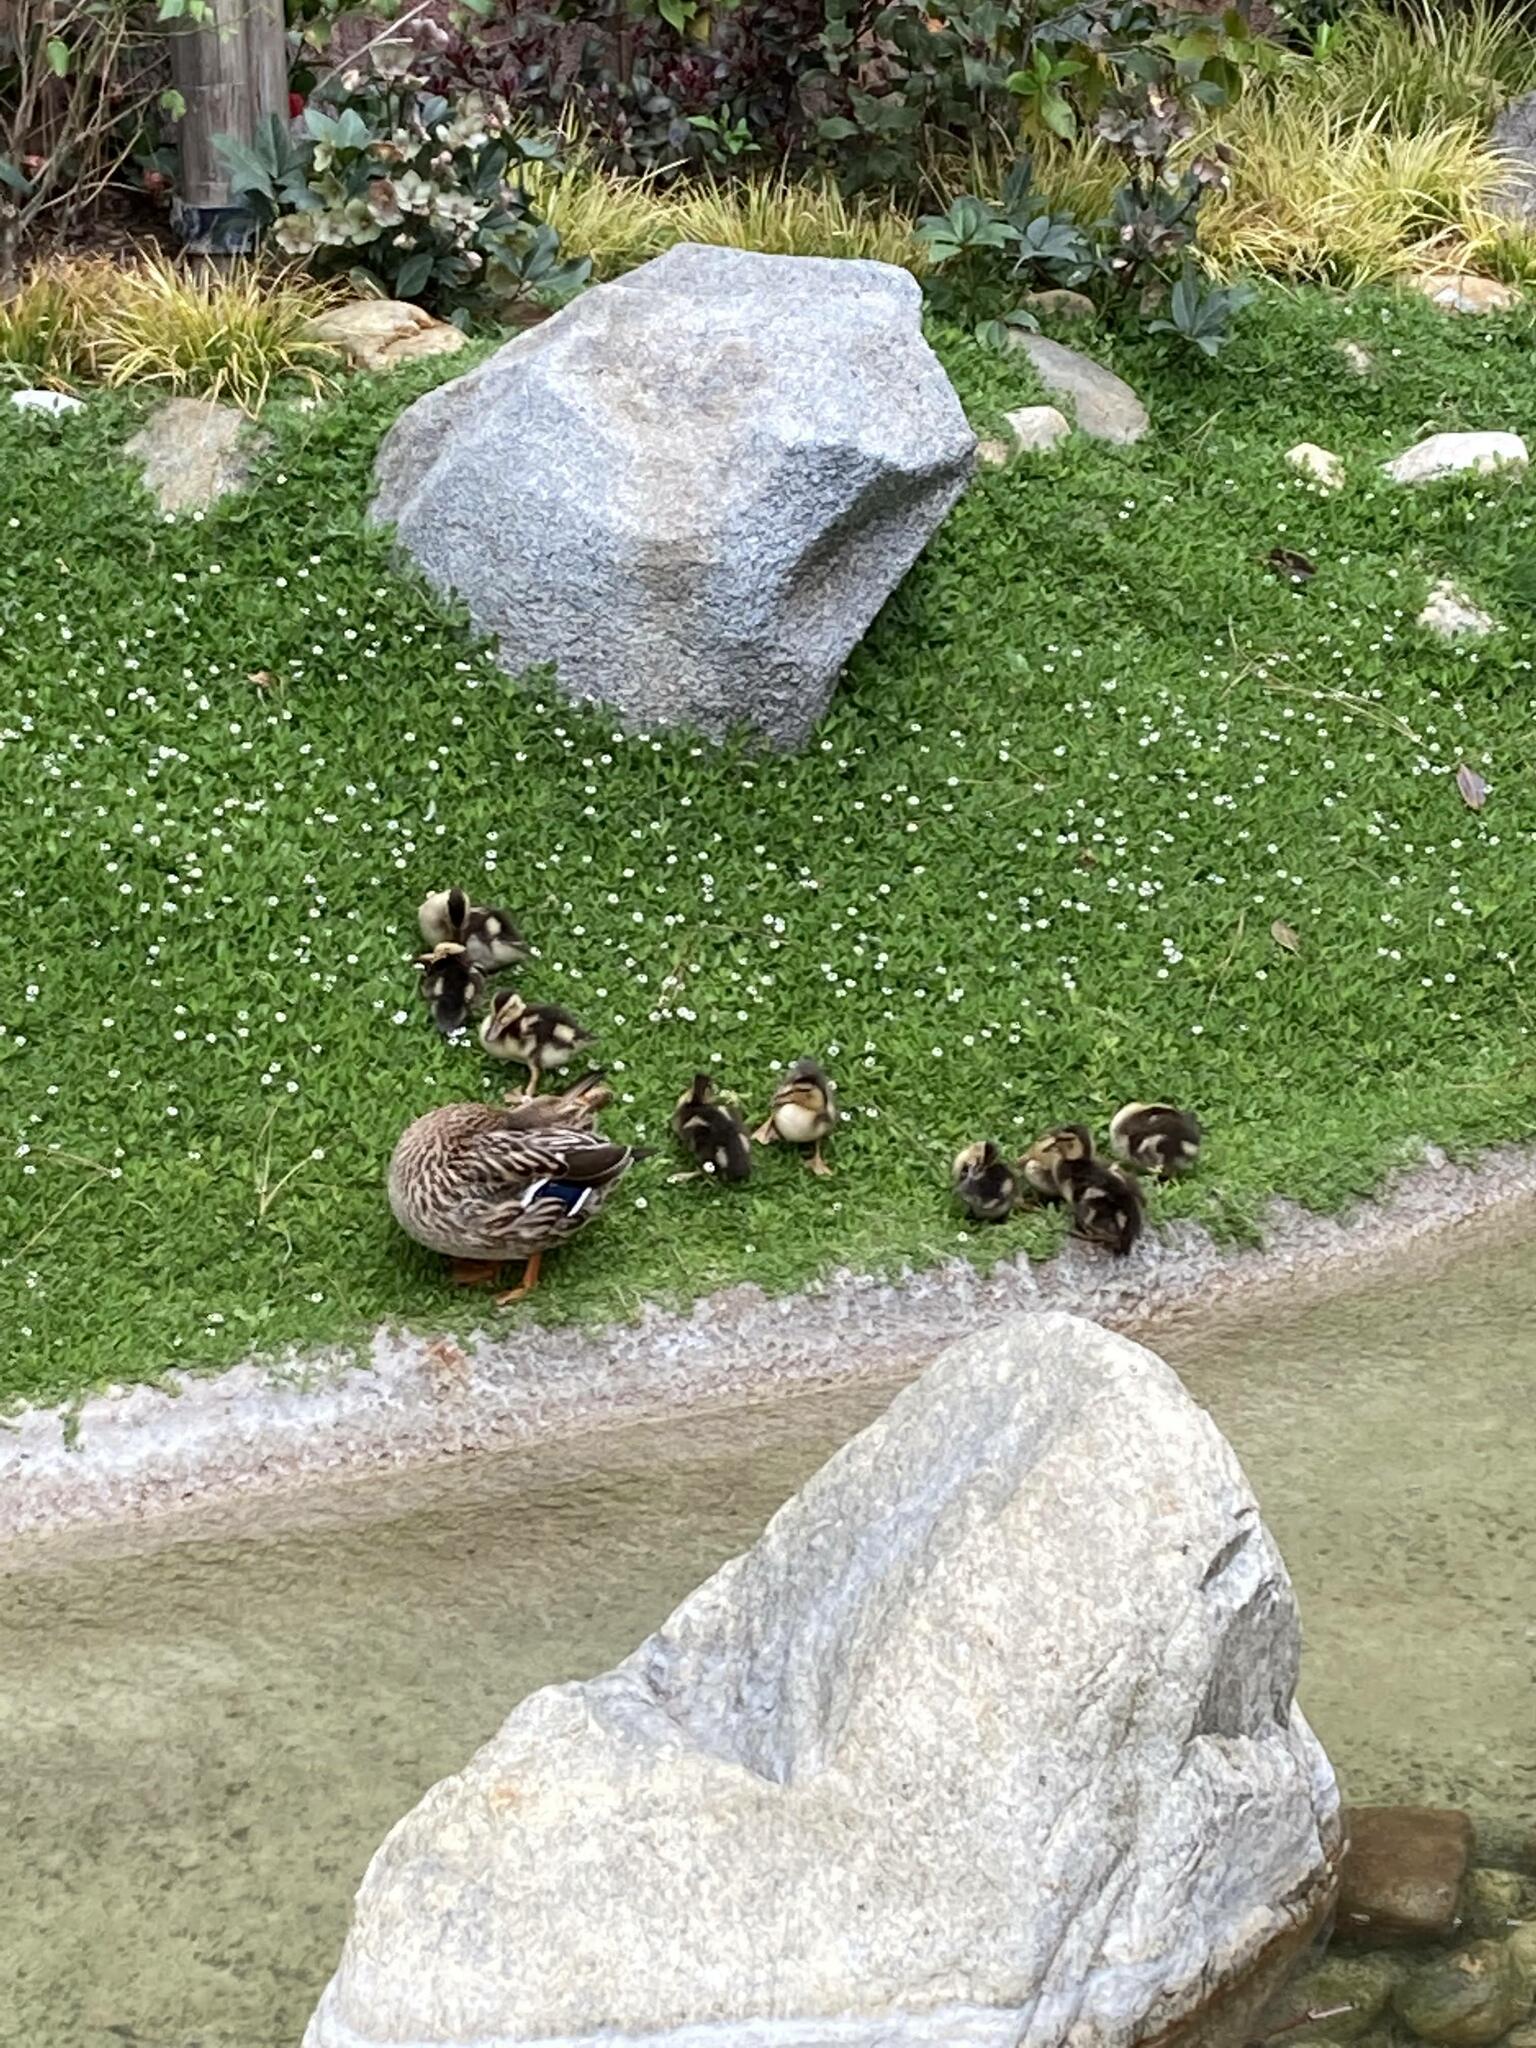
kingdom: Animalia
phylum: Chordata
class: Aves
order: Anseriformes
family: Anatidae
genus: Anas
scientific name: Anas platyrhynchos
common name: Mallard
